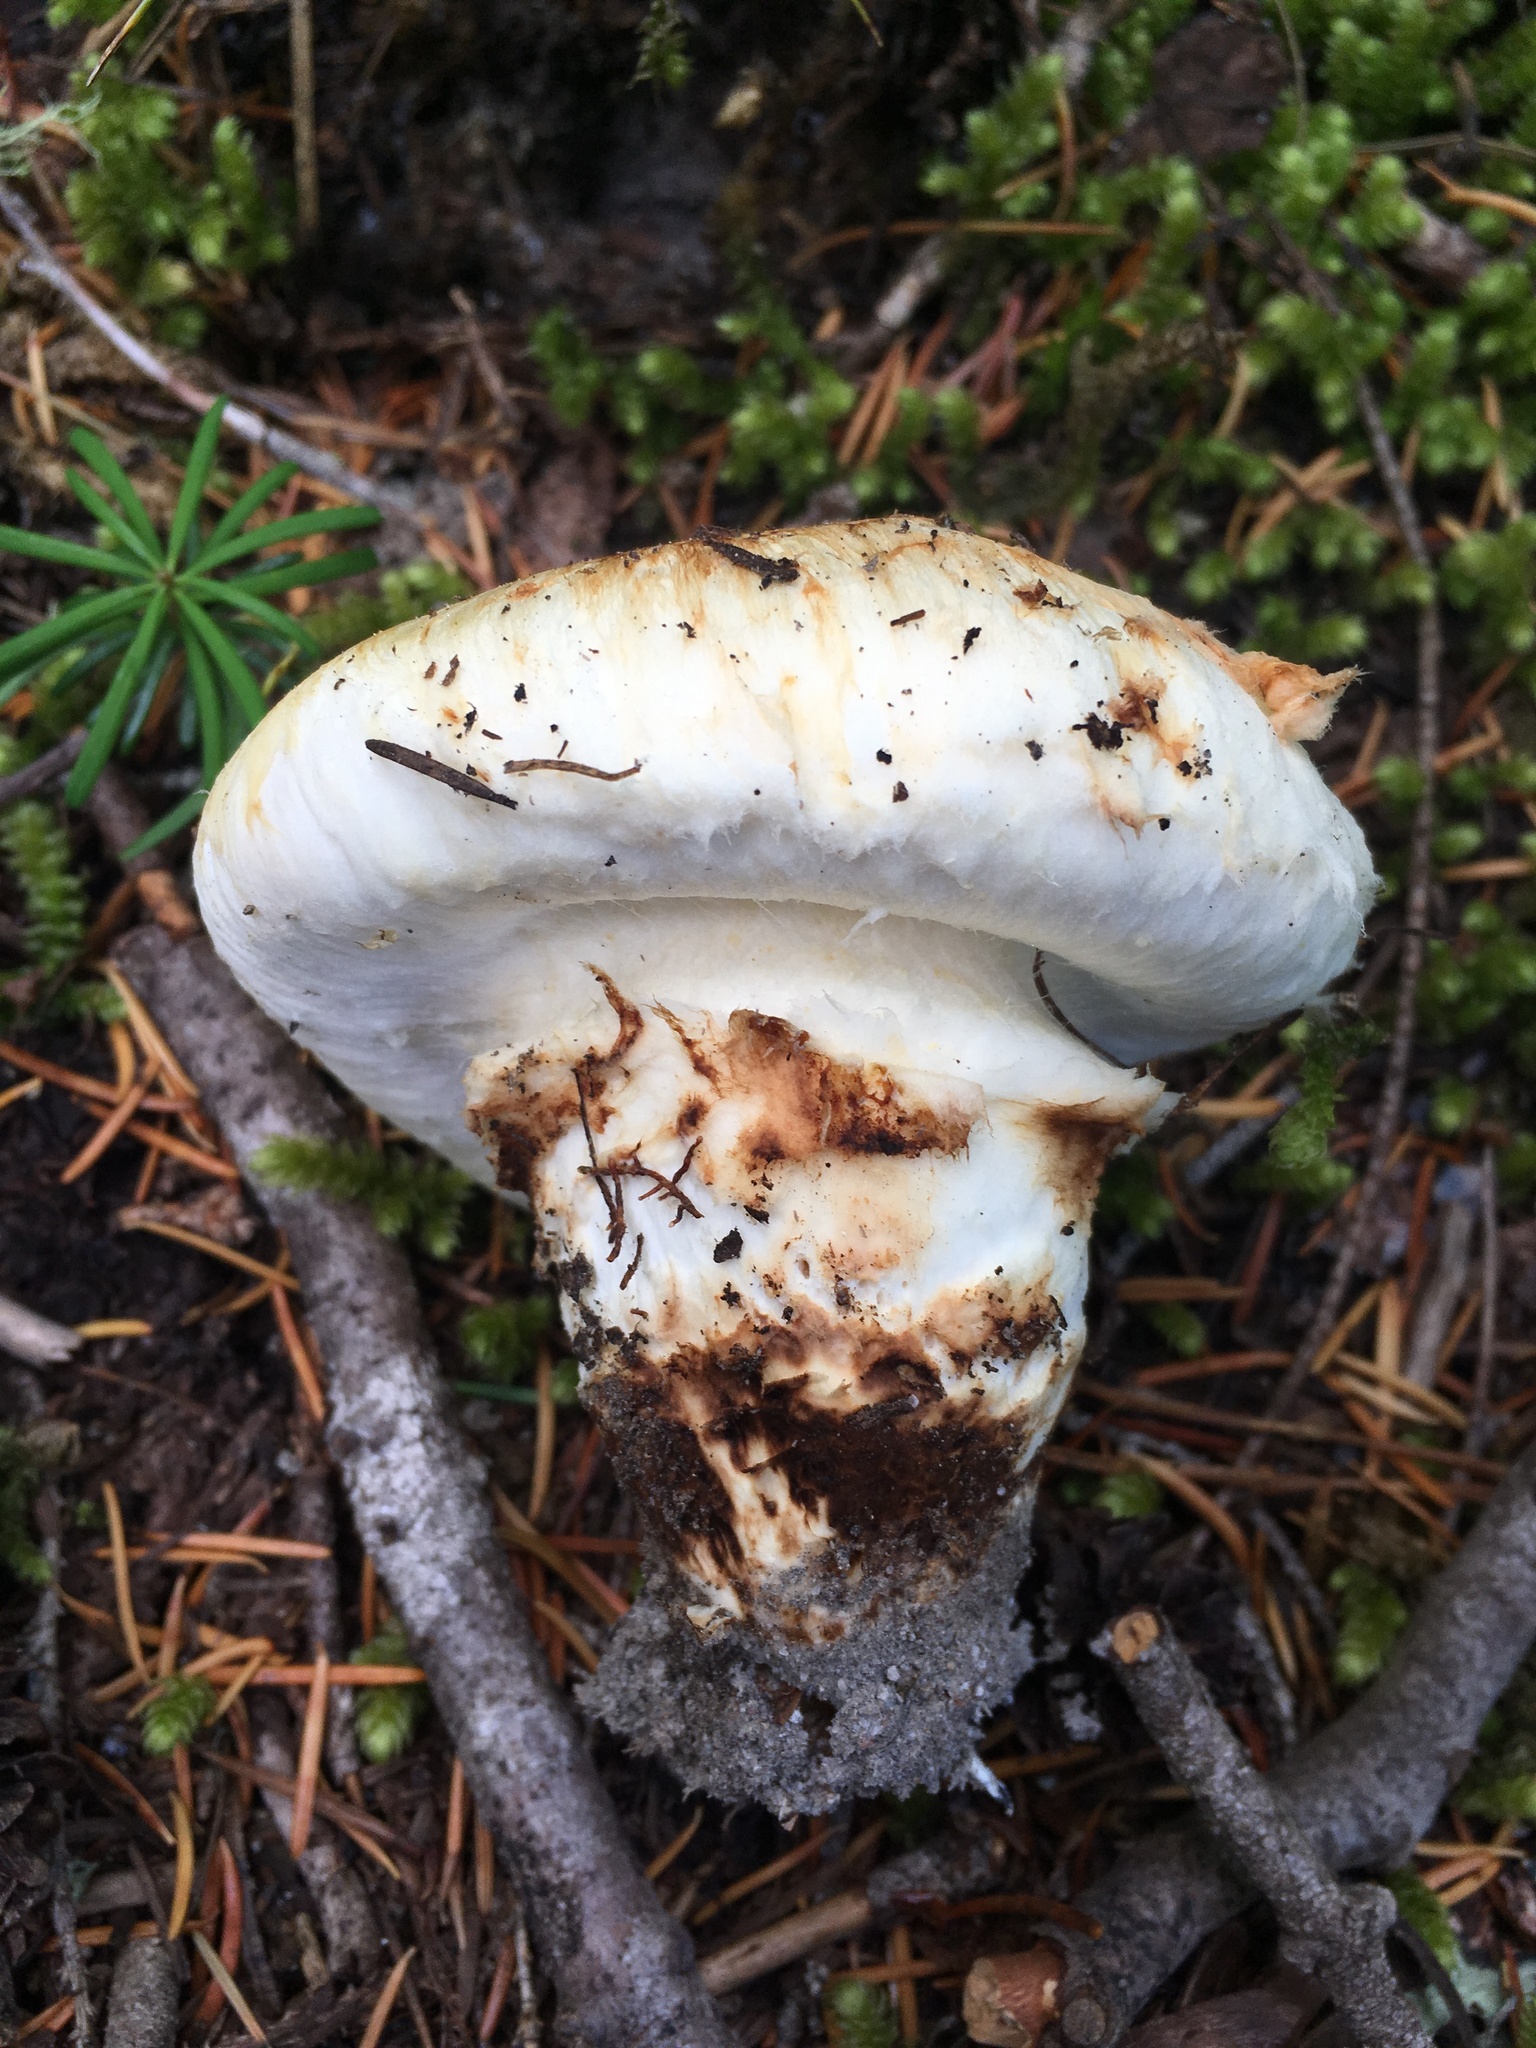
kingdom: Fungi
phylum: Basidiomycota
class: Agaricomycetes
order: Agaricales
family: Tricholomataceae
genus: Tricholoma
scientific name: Tricholoma murrillianum
